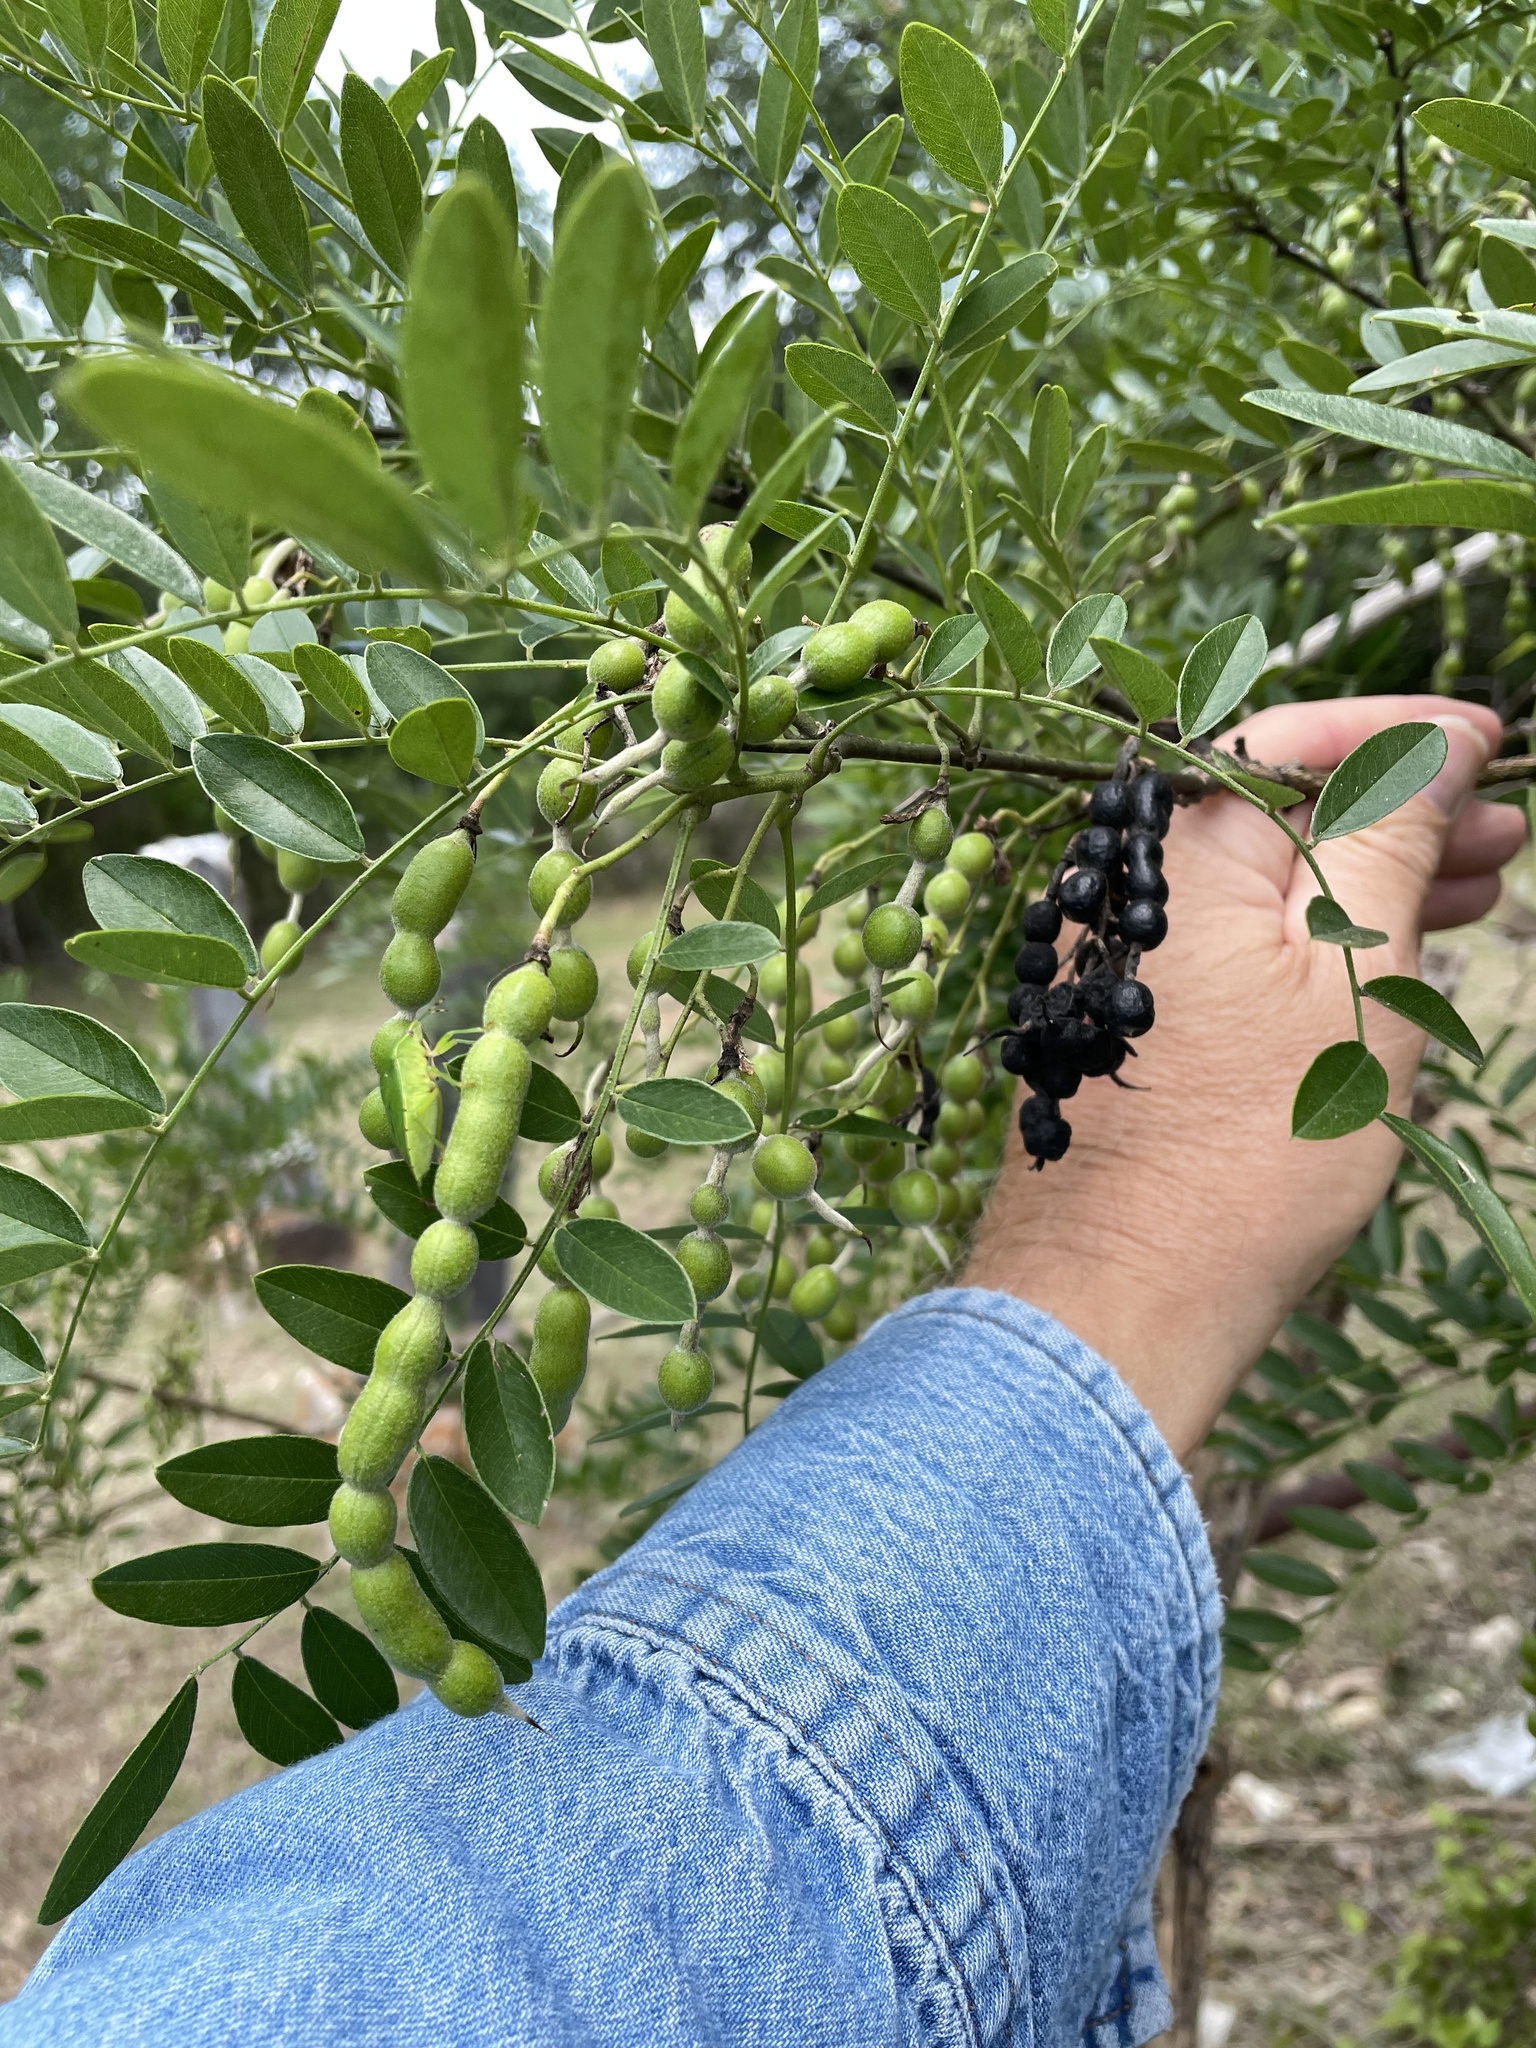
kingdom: Plantae
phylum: Tracheophyta
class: Magnoliopsida
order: Fabales
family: Fabaceae
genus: Styphnolobium
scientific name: Styphnolobium affine
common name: Texas sophora
